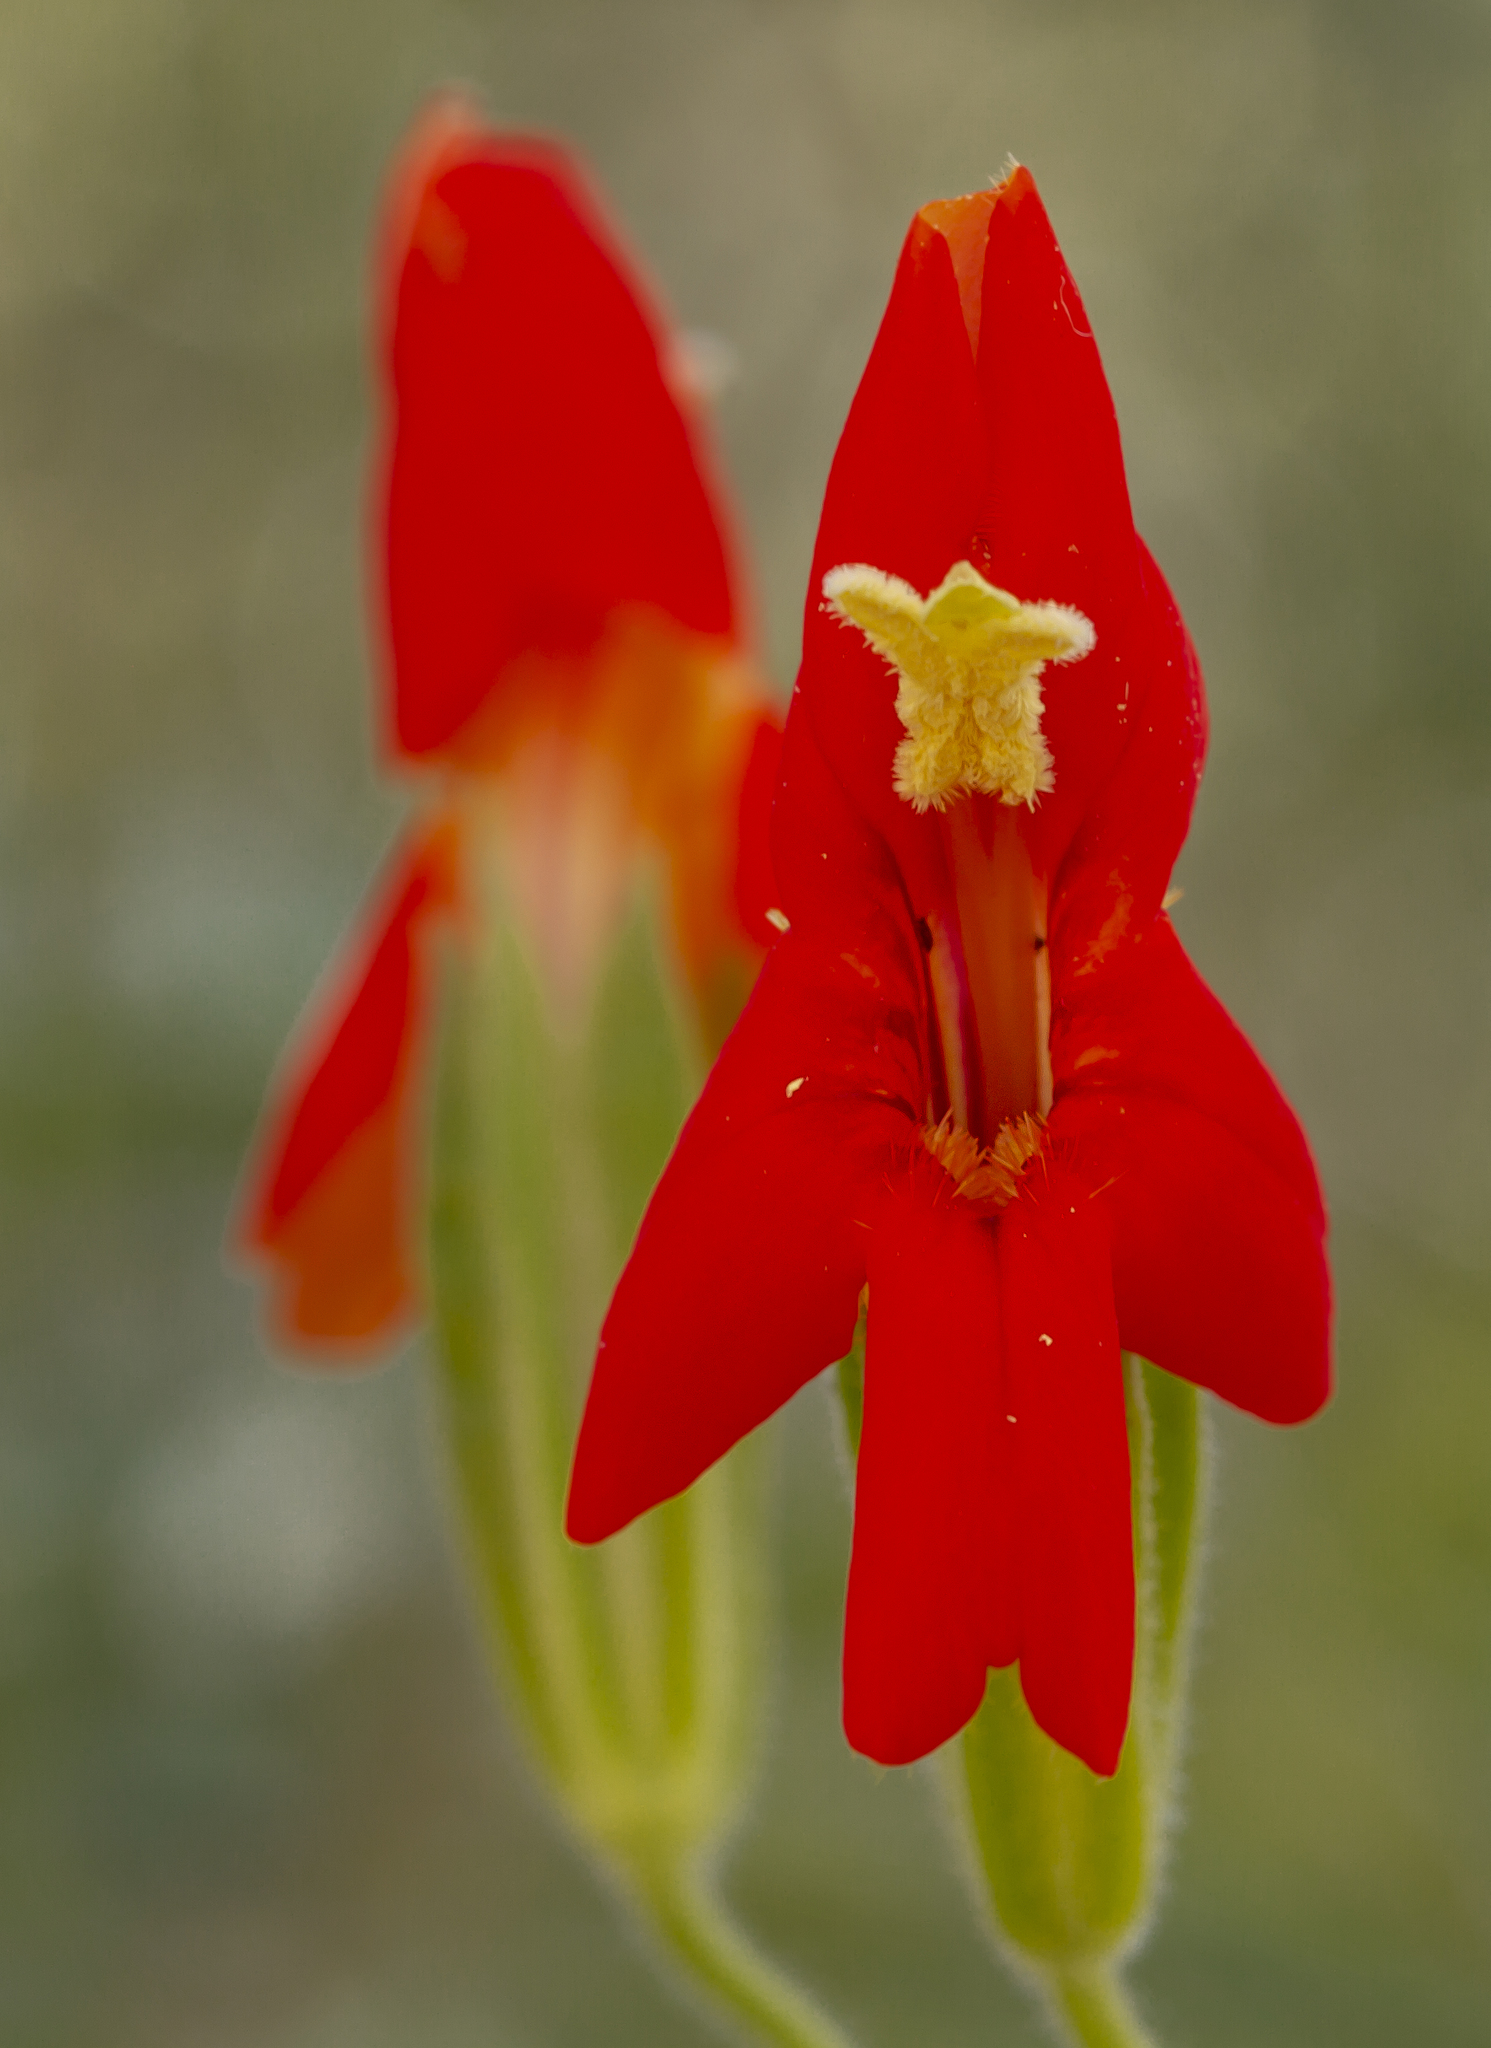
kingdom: Plantae
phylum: Tracheophyta
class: Magnoliopsida
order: Lamiales
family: Phrymaceae
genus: Erythranthe
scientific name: Erythranthe cardinalis
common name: Scarlet monkey-flower
